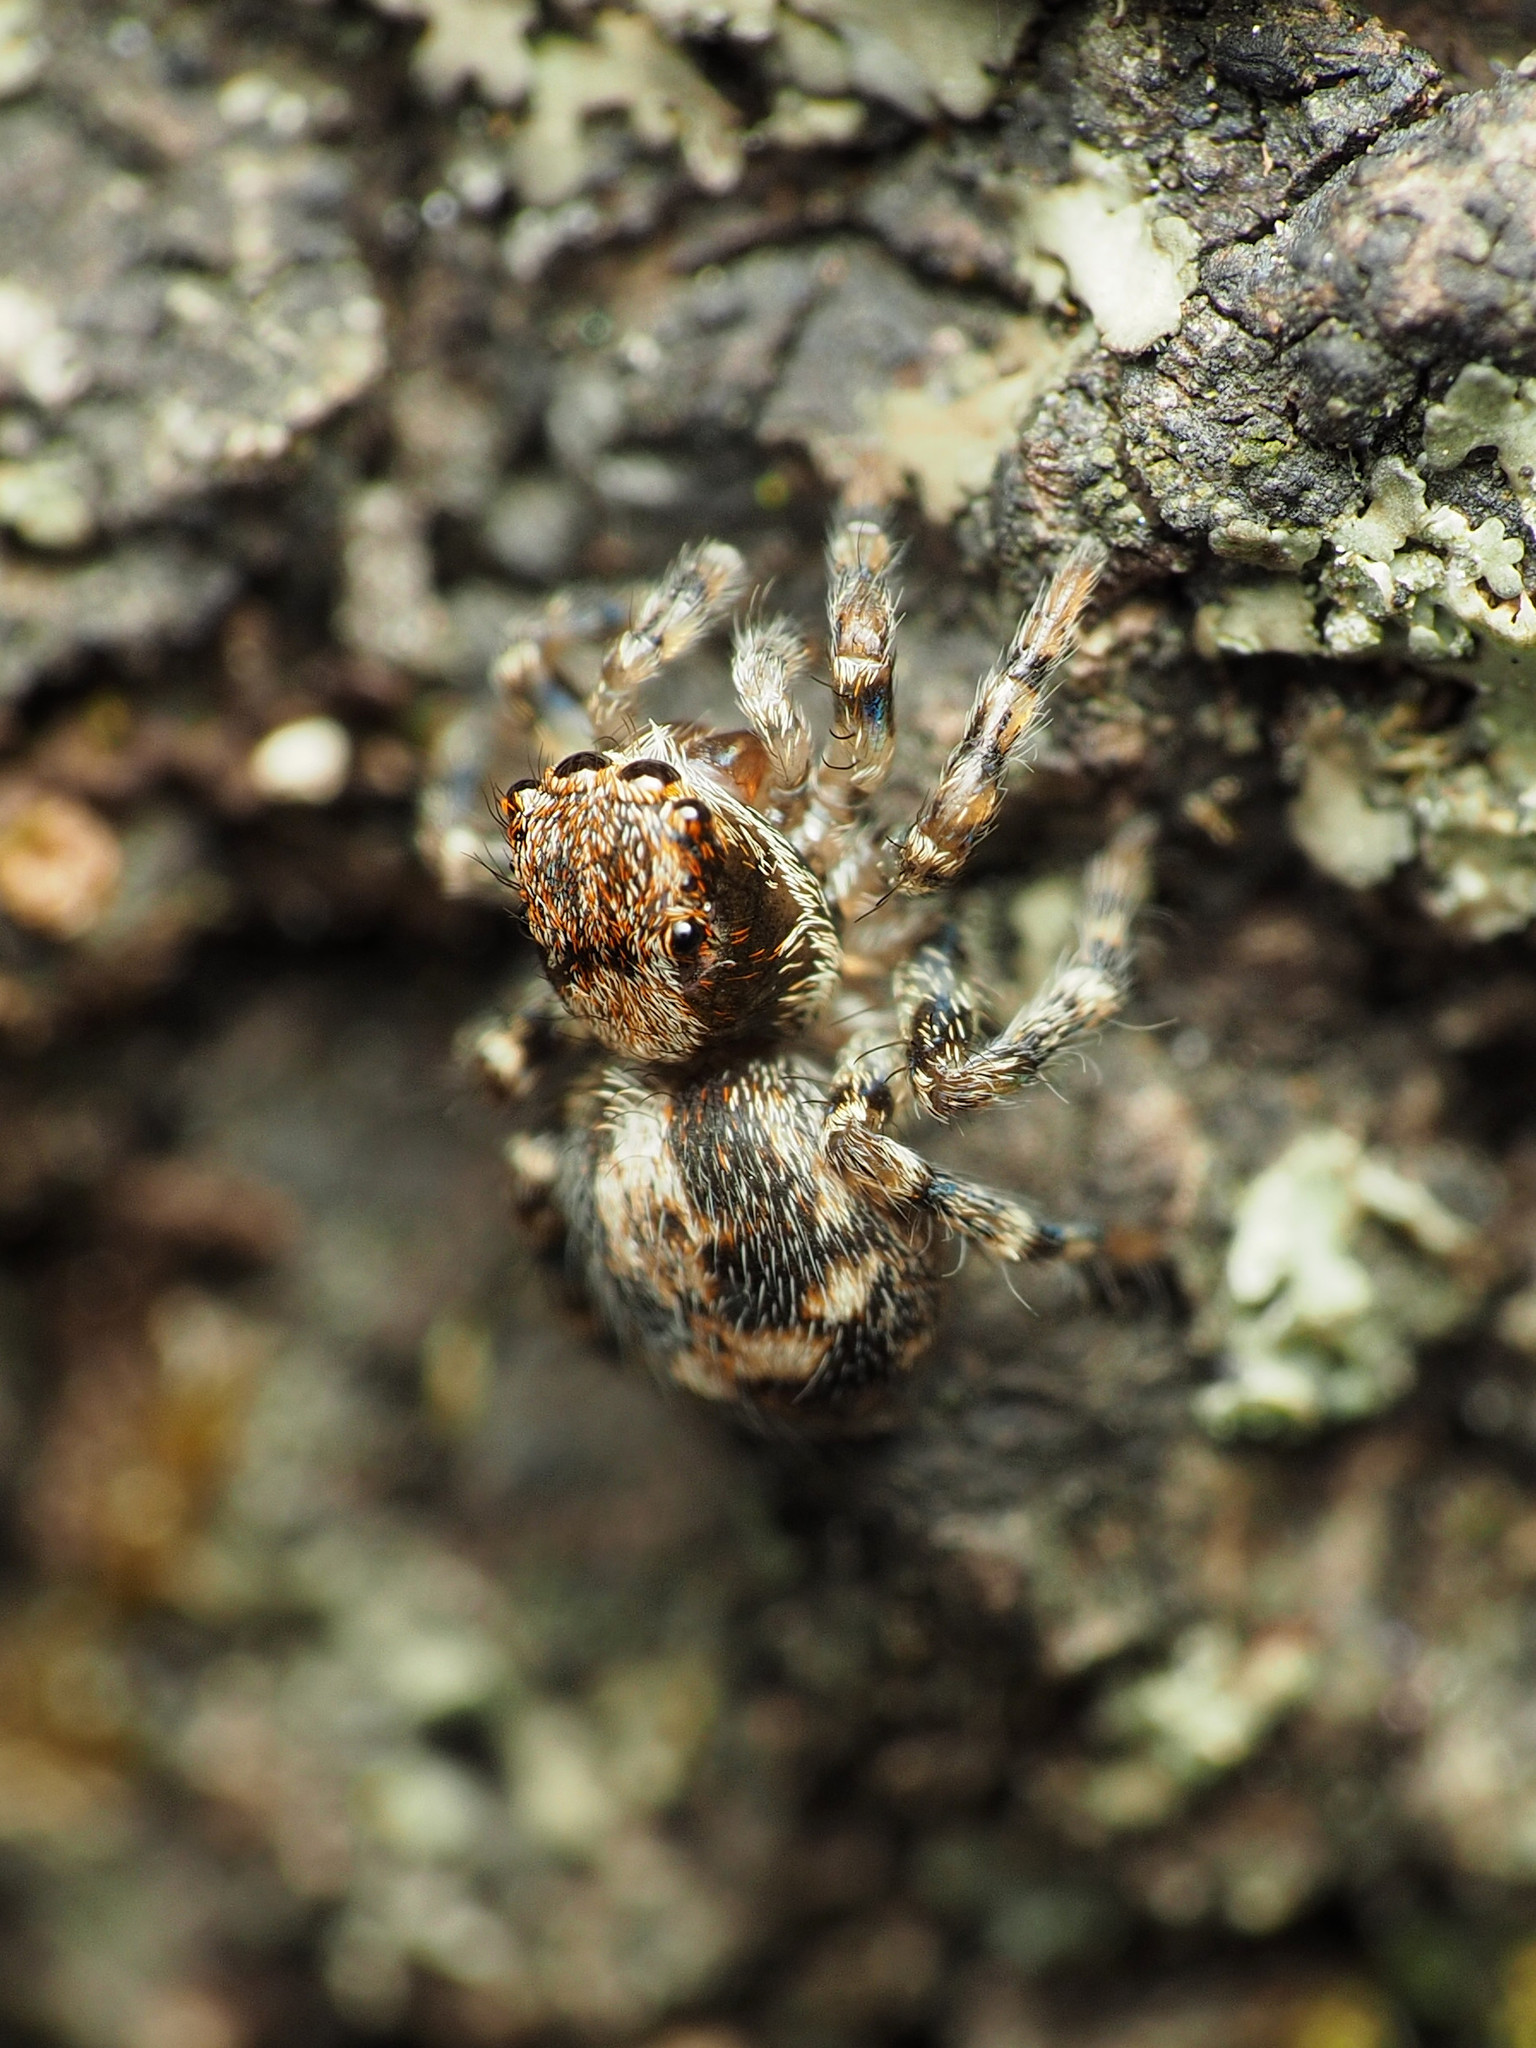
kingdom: Animalia
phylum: Arthropoda
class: Arachnida
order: Araneae
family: Salticidae
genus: Naphrys
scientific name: Naphrys pulex
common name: Flea jumping spider
